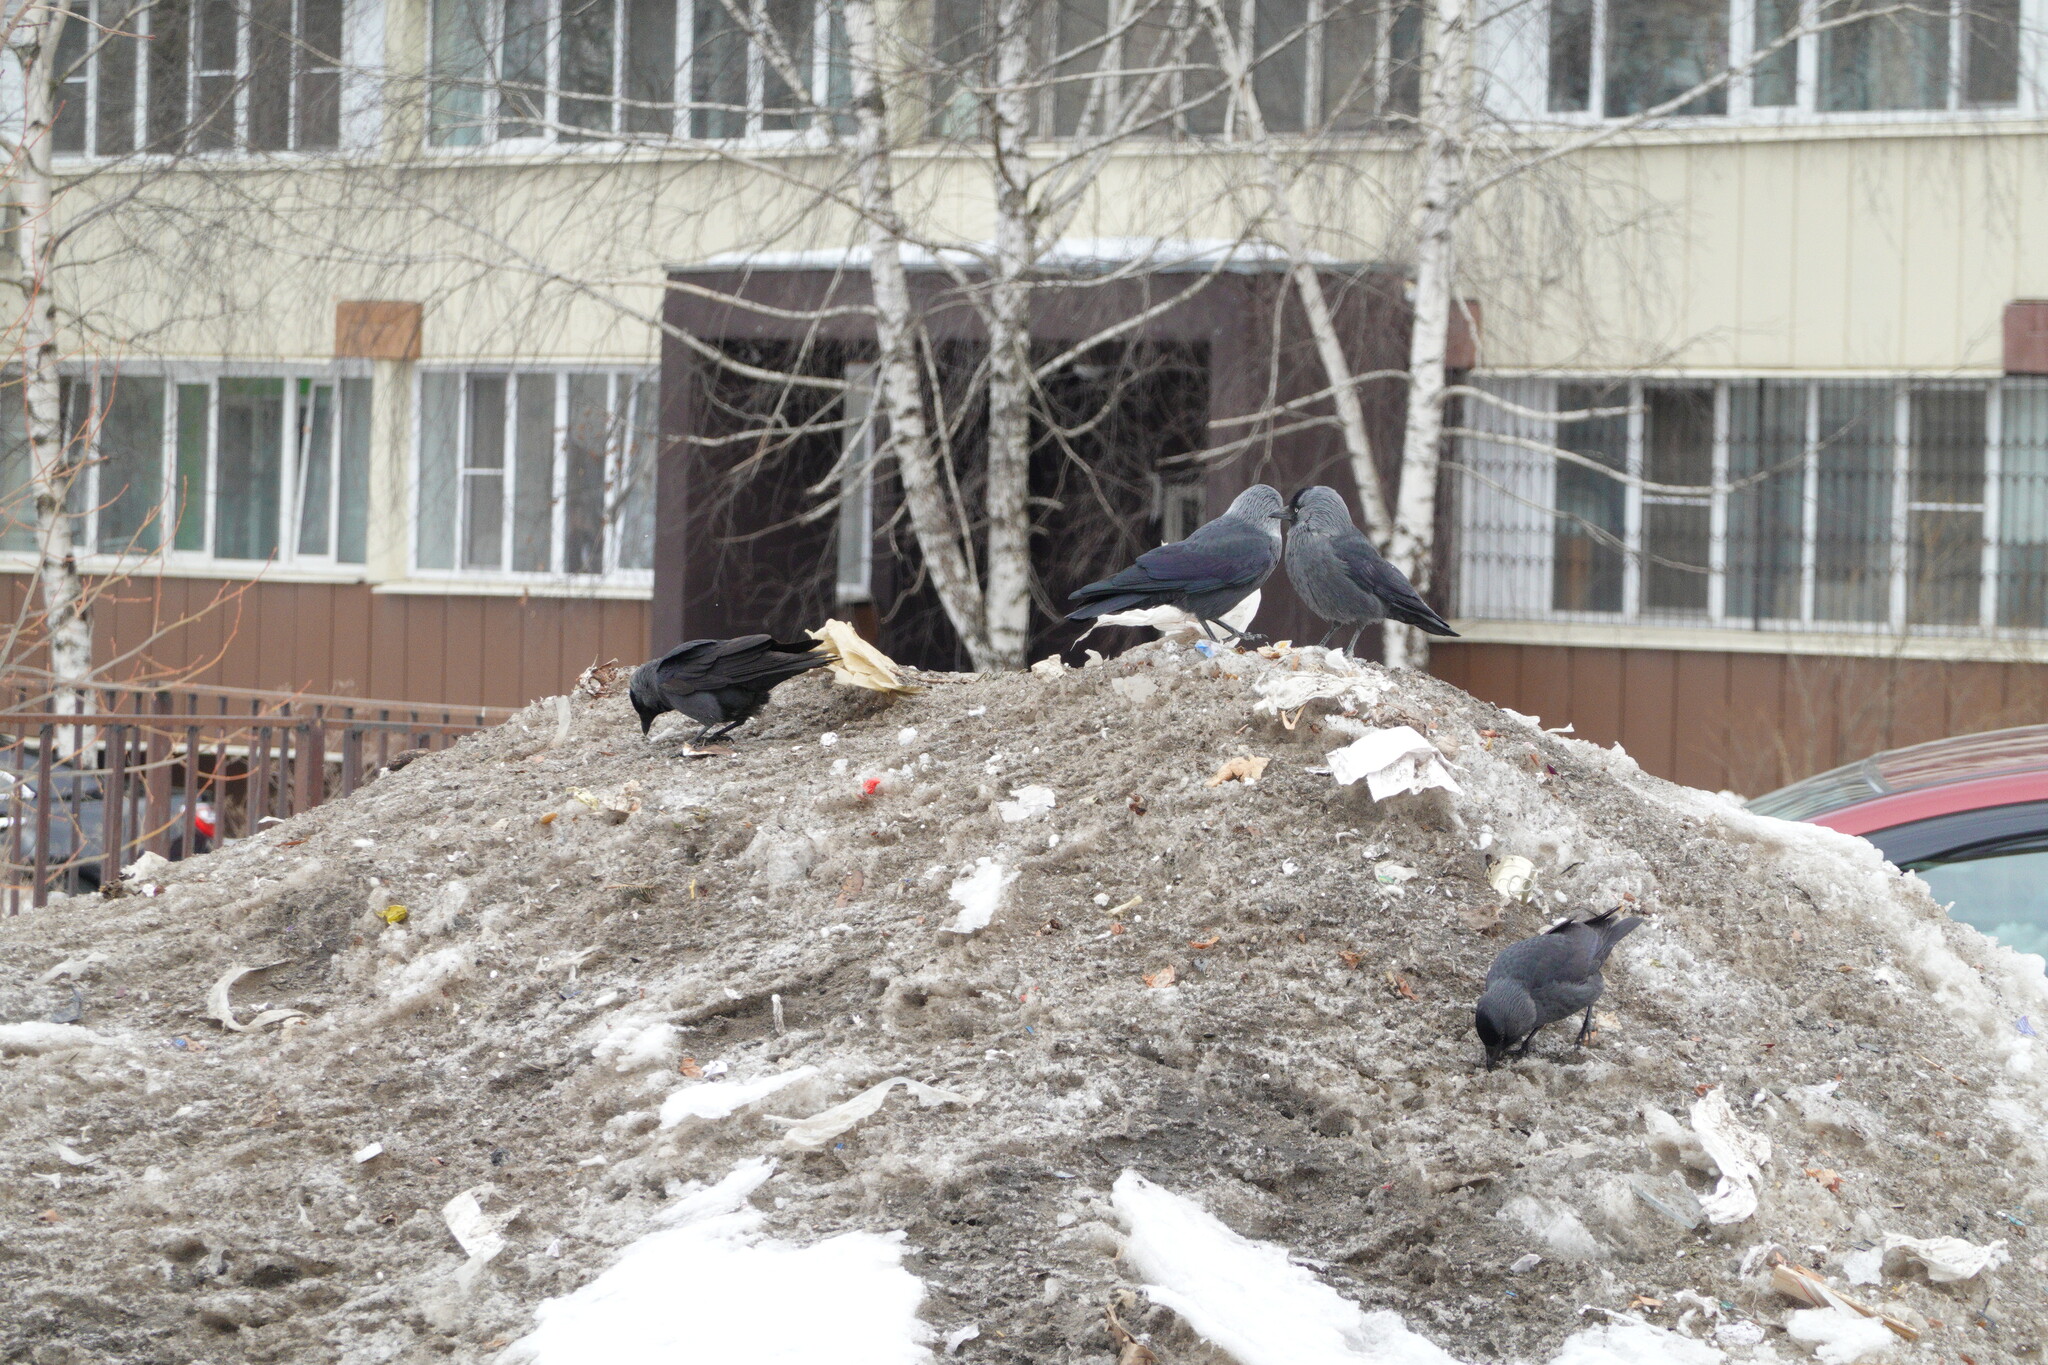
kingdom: Animalia
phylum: Chordata
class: Aves
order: Passeriformes
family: Corvidae
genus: Coloeus
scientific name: Coloeus monedula
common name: Western jackdaw
